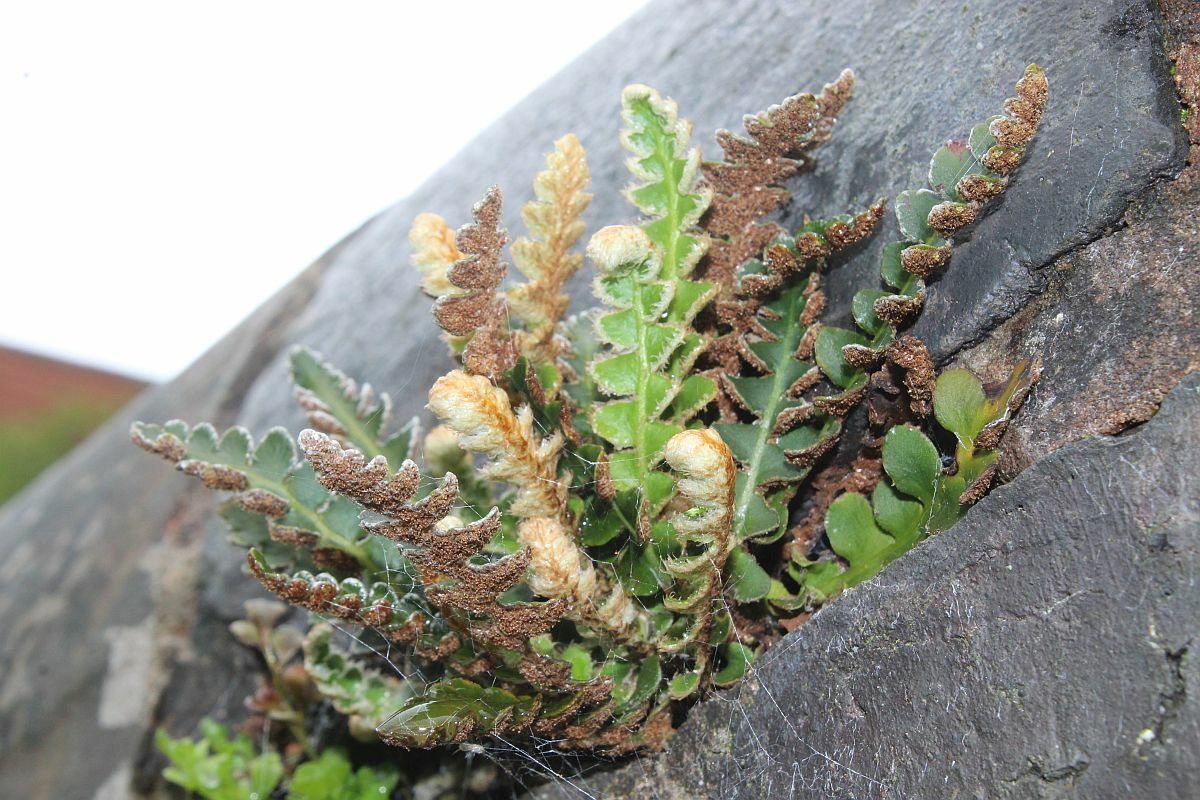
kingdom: Plantae
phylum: Tracheophyta
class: Polypodiopsida
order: Polypodiales
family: Aspleniaceae
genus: Asplenium
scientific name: Asplenium ceterach
